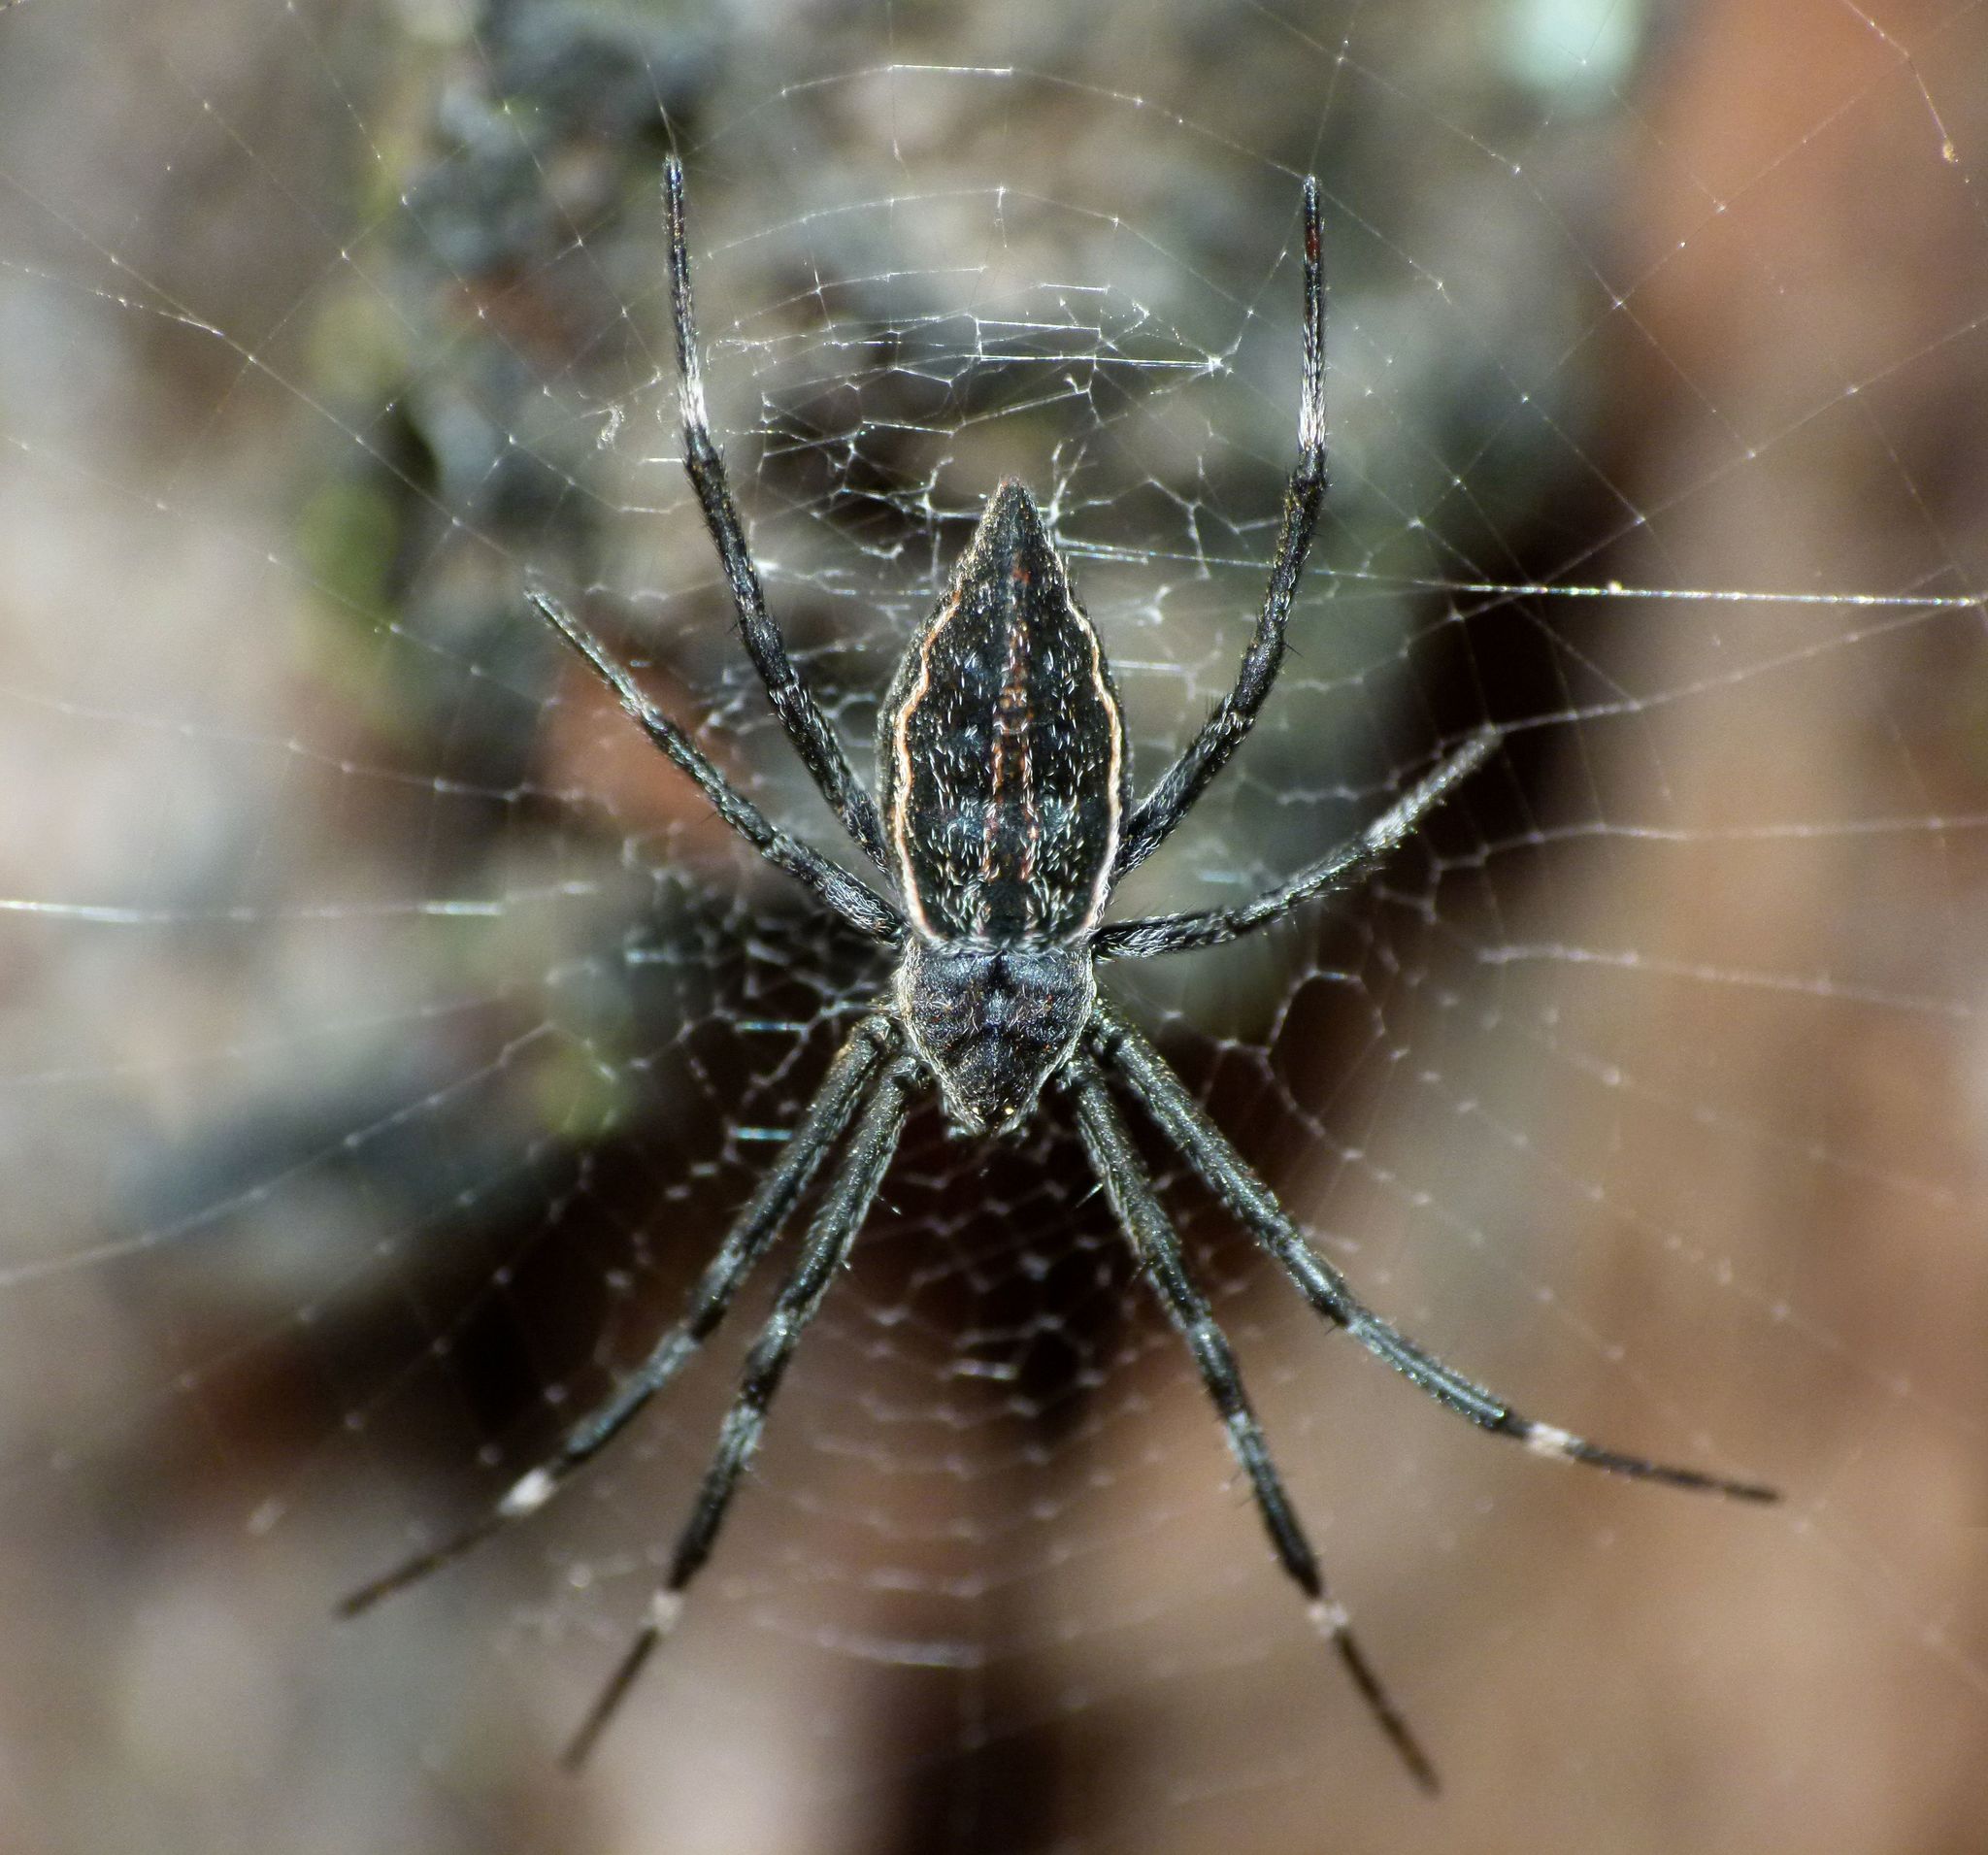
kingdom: Animalia
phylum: Arthropoda
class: Arachnida
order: Araneae
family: Araneidae
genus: Argiope
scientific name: Argiope ocyaloides
